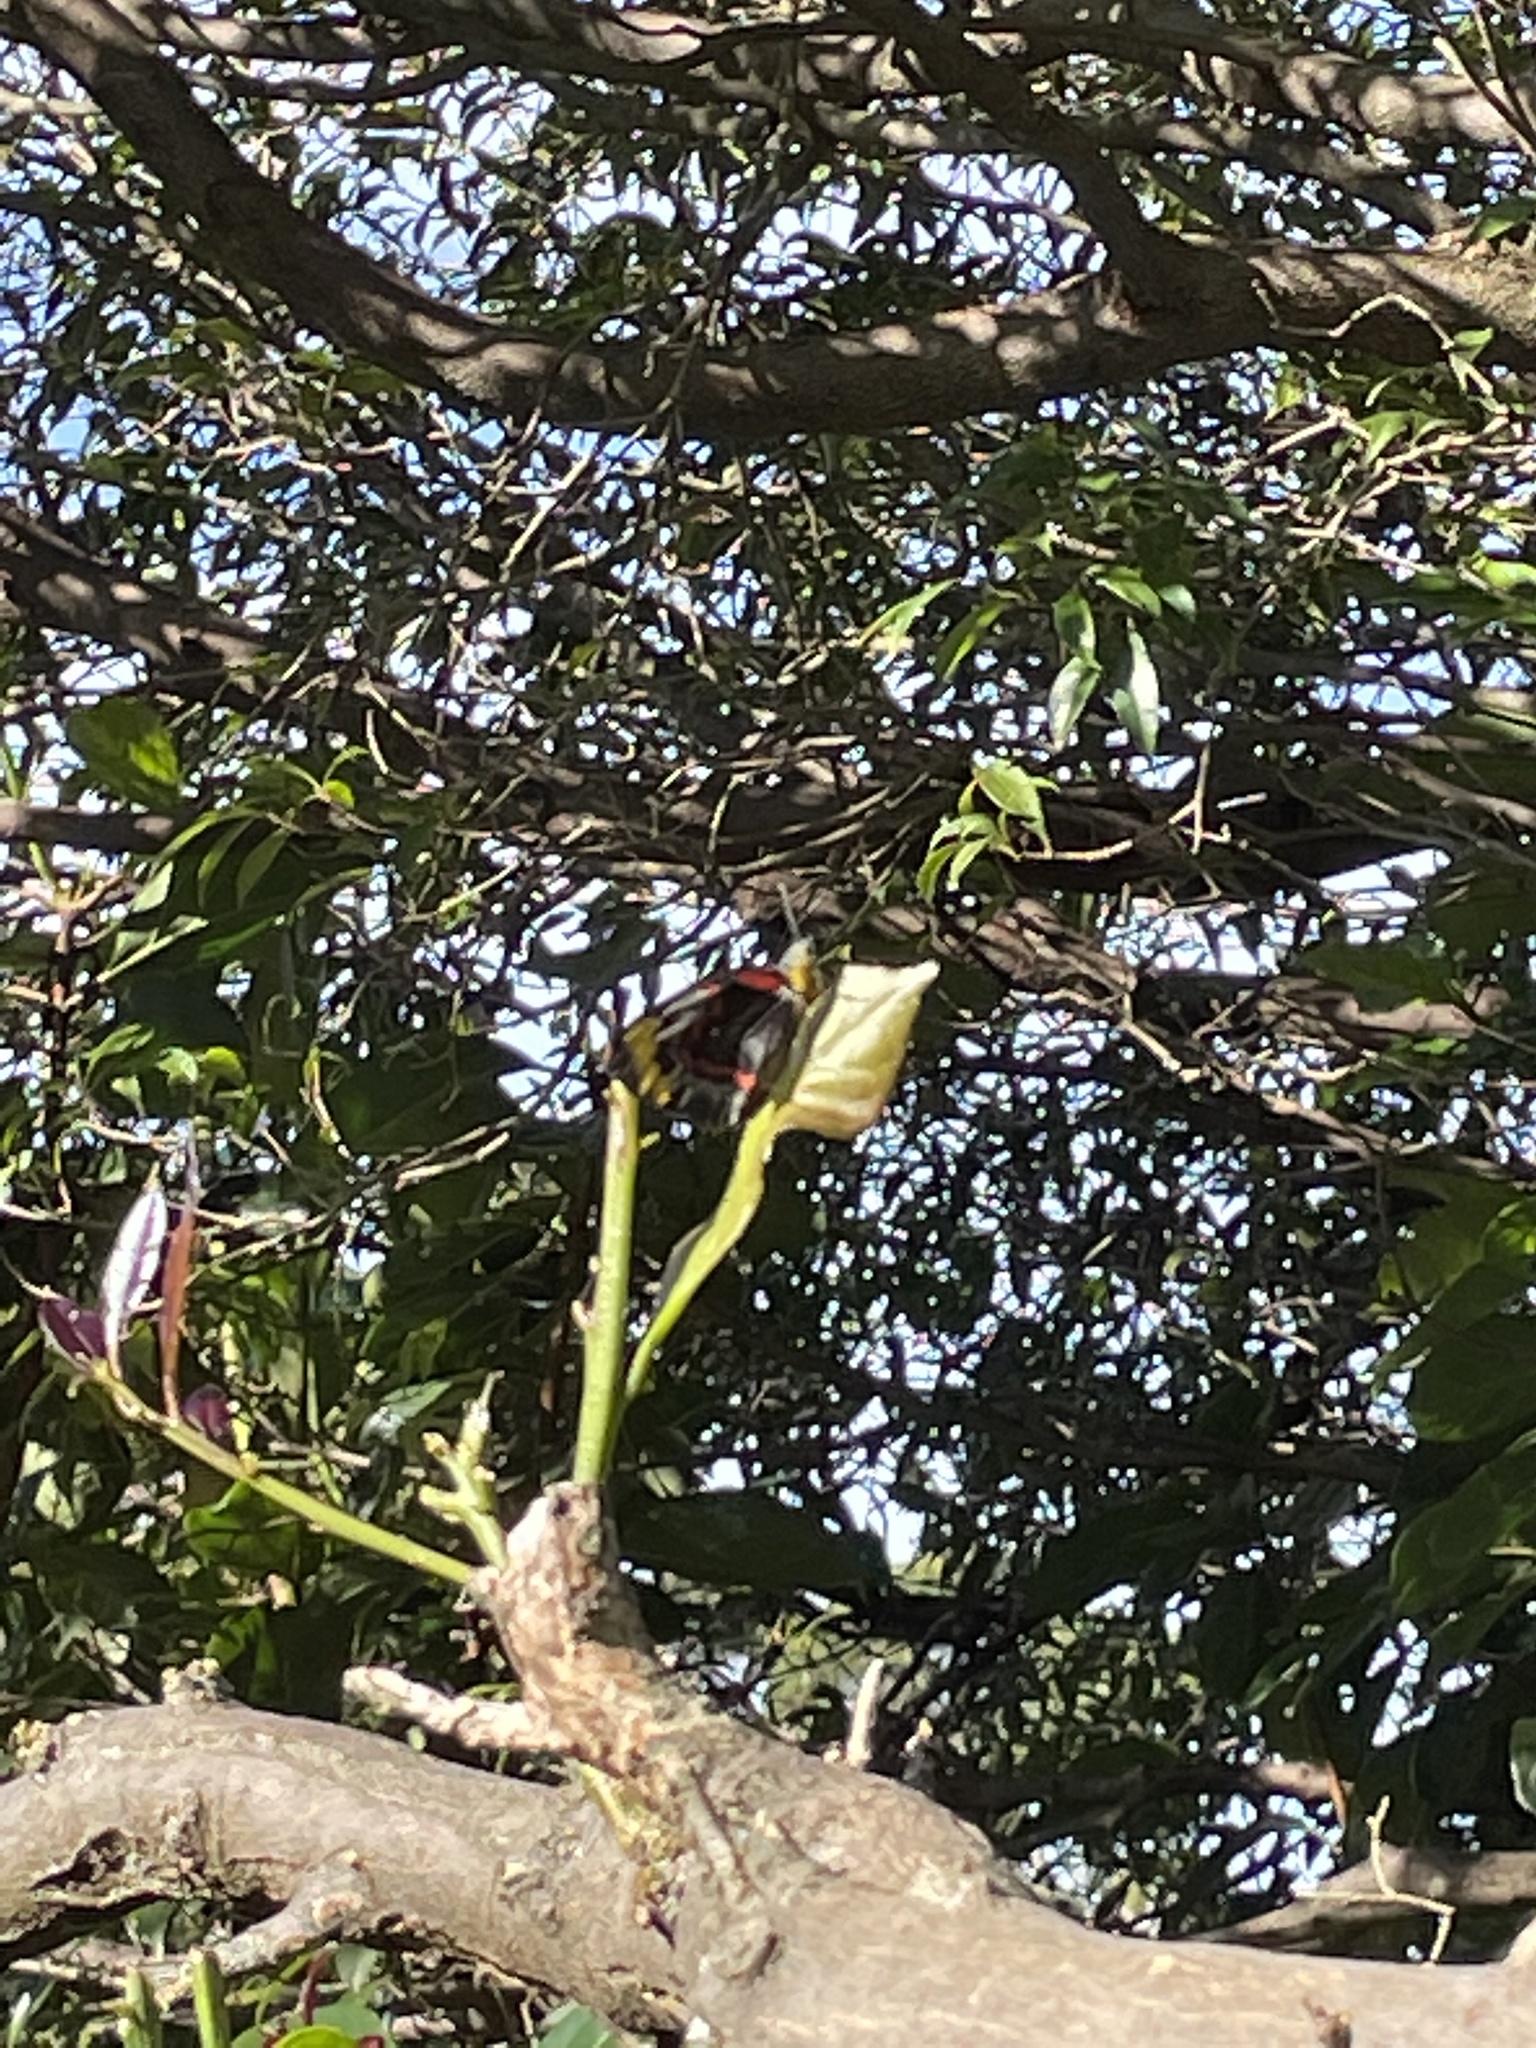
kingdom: Animalia
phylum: Arthropoda
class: Insecta
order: Lepidoptera
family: Pieridae
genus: Delias
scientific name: Delias nigrina
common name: Black jezebel
